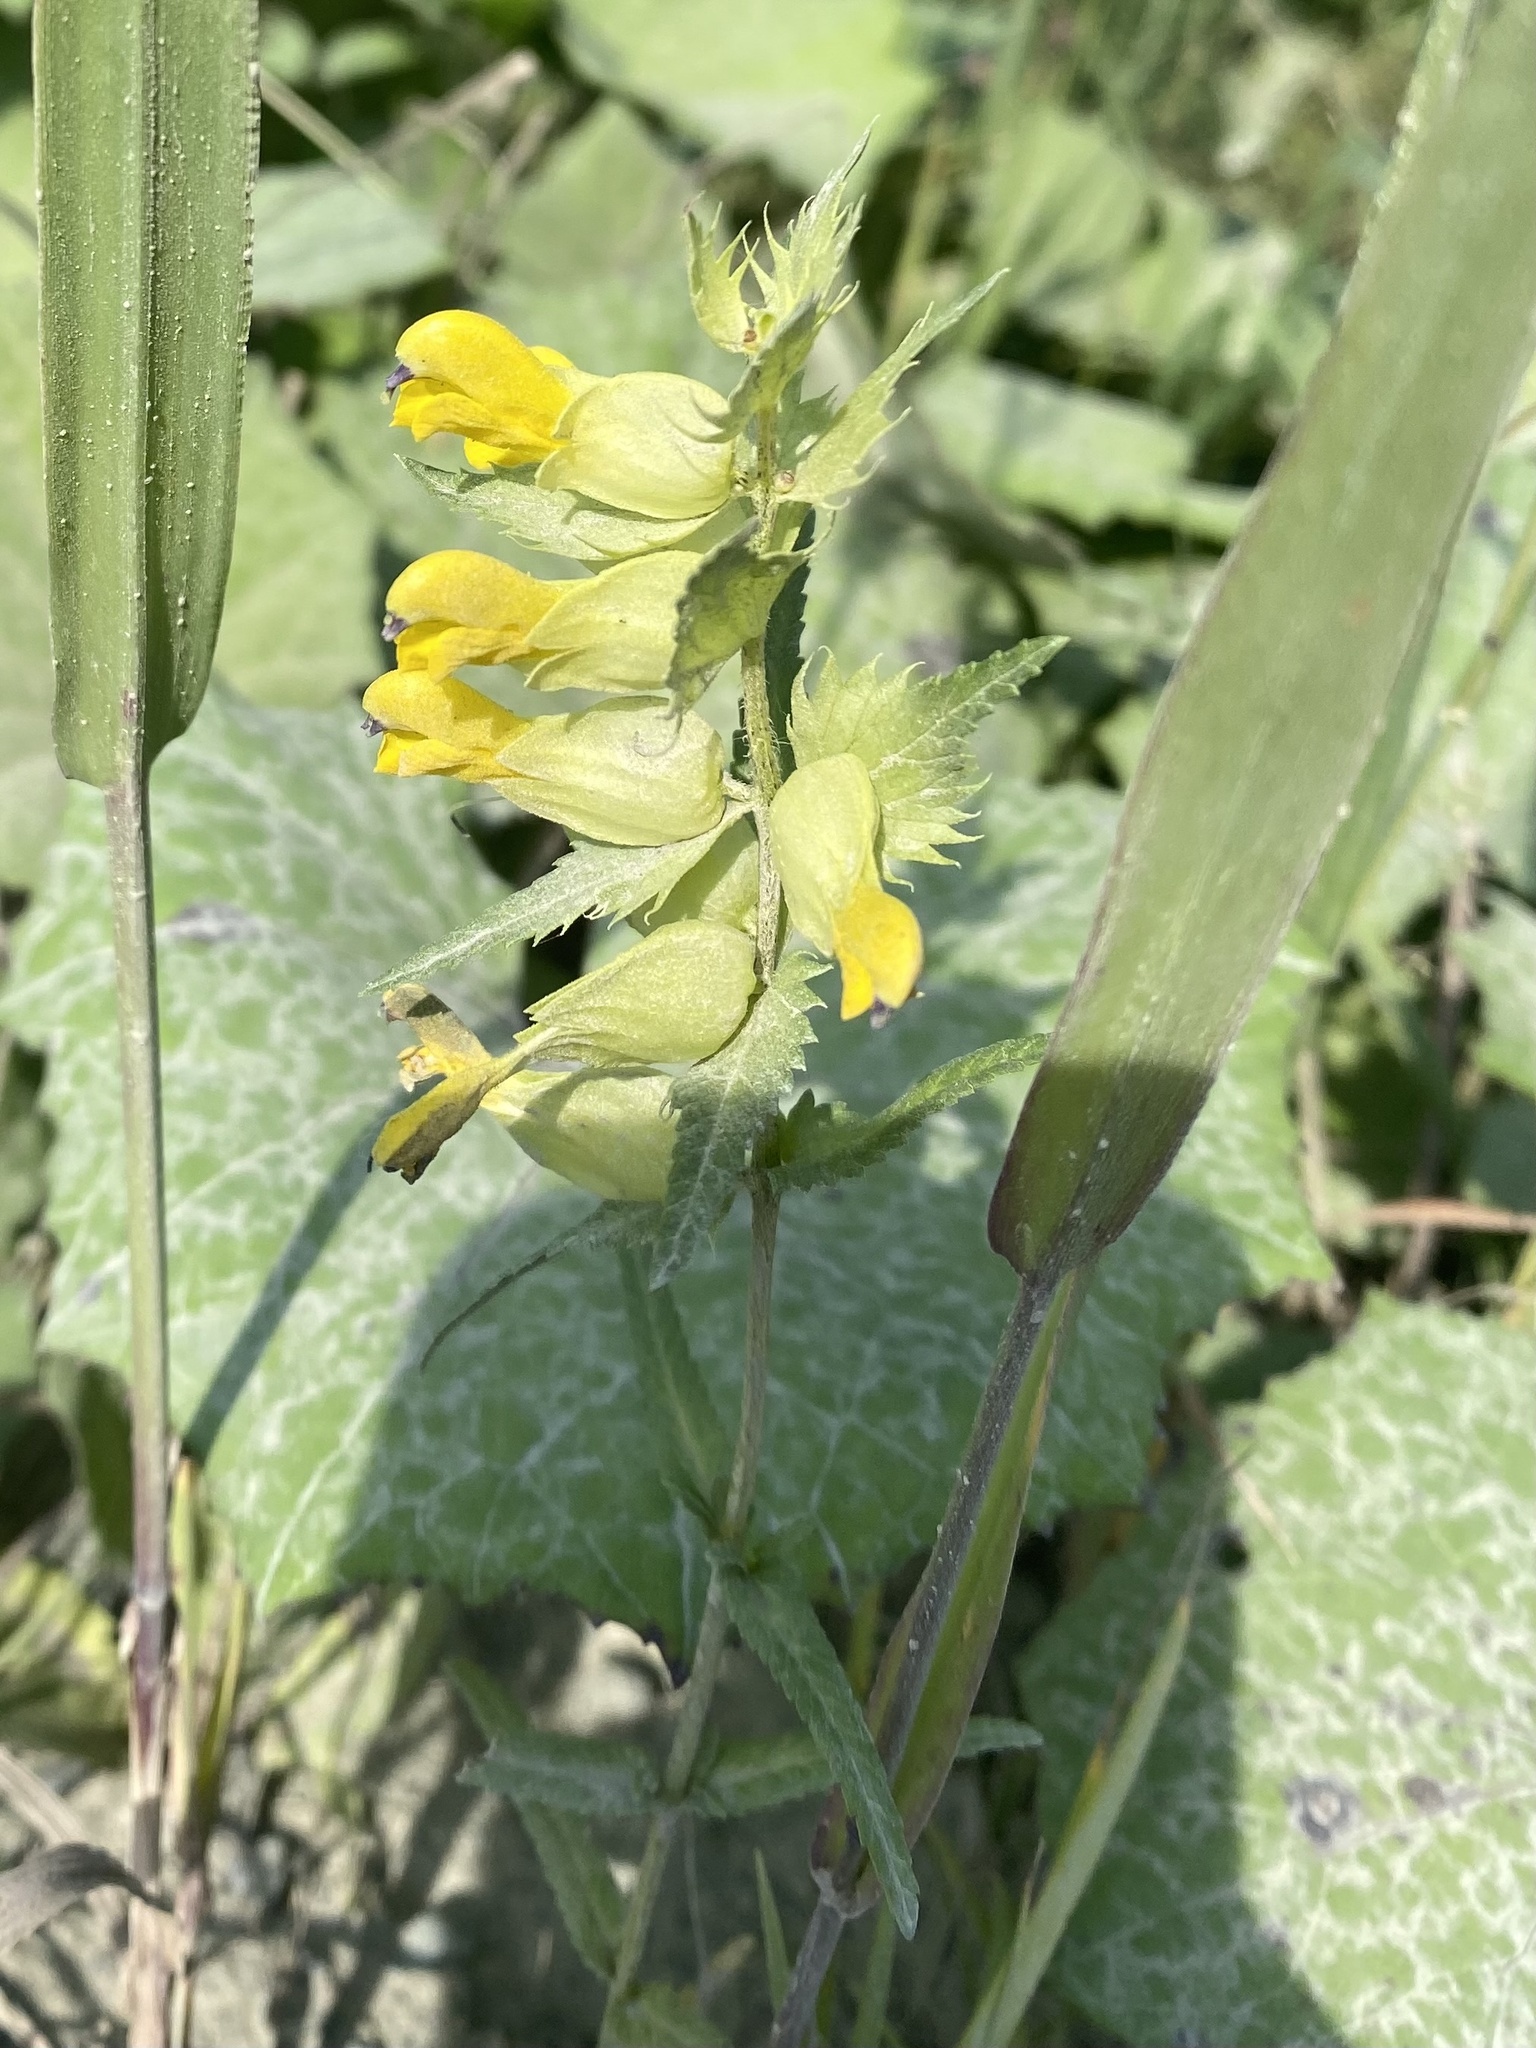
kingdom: Plantae
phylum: Tracheophyta
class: Magnoliopsida
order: Lamiales
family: Orobanchaceae
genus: Rhinanthus
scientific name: Rhinanthus serotinus
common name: Late-flowering yellow rattle
